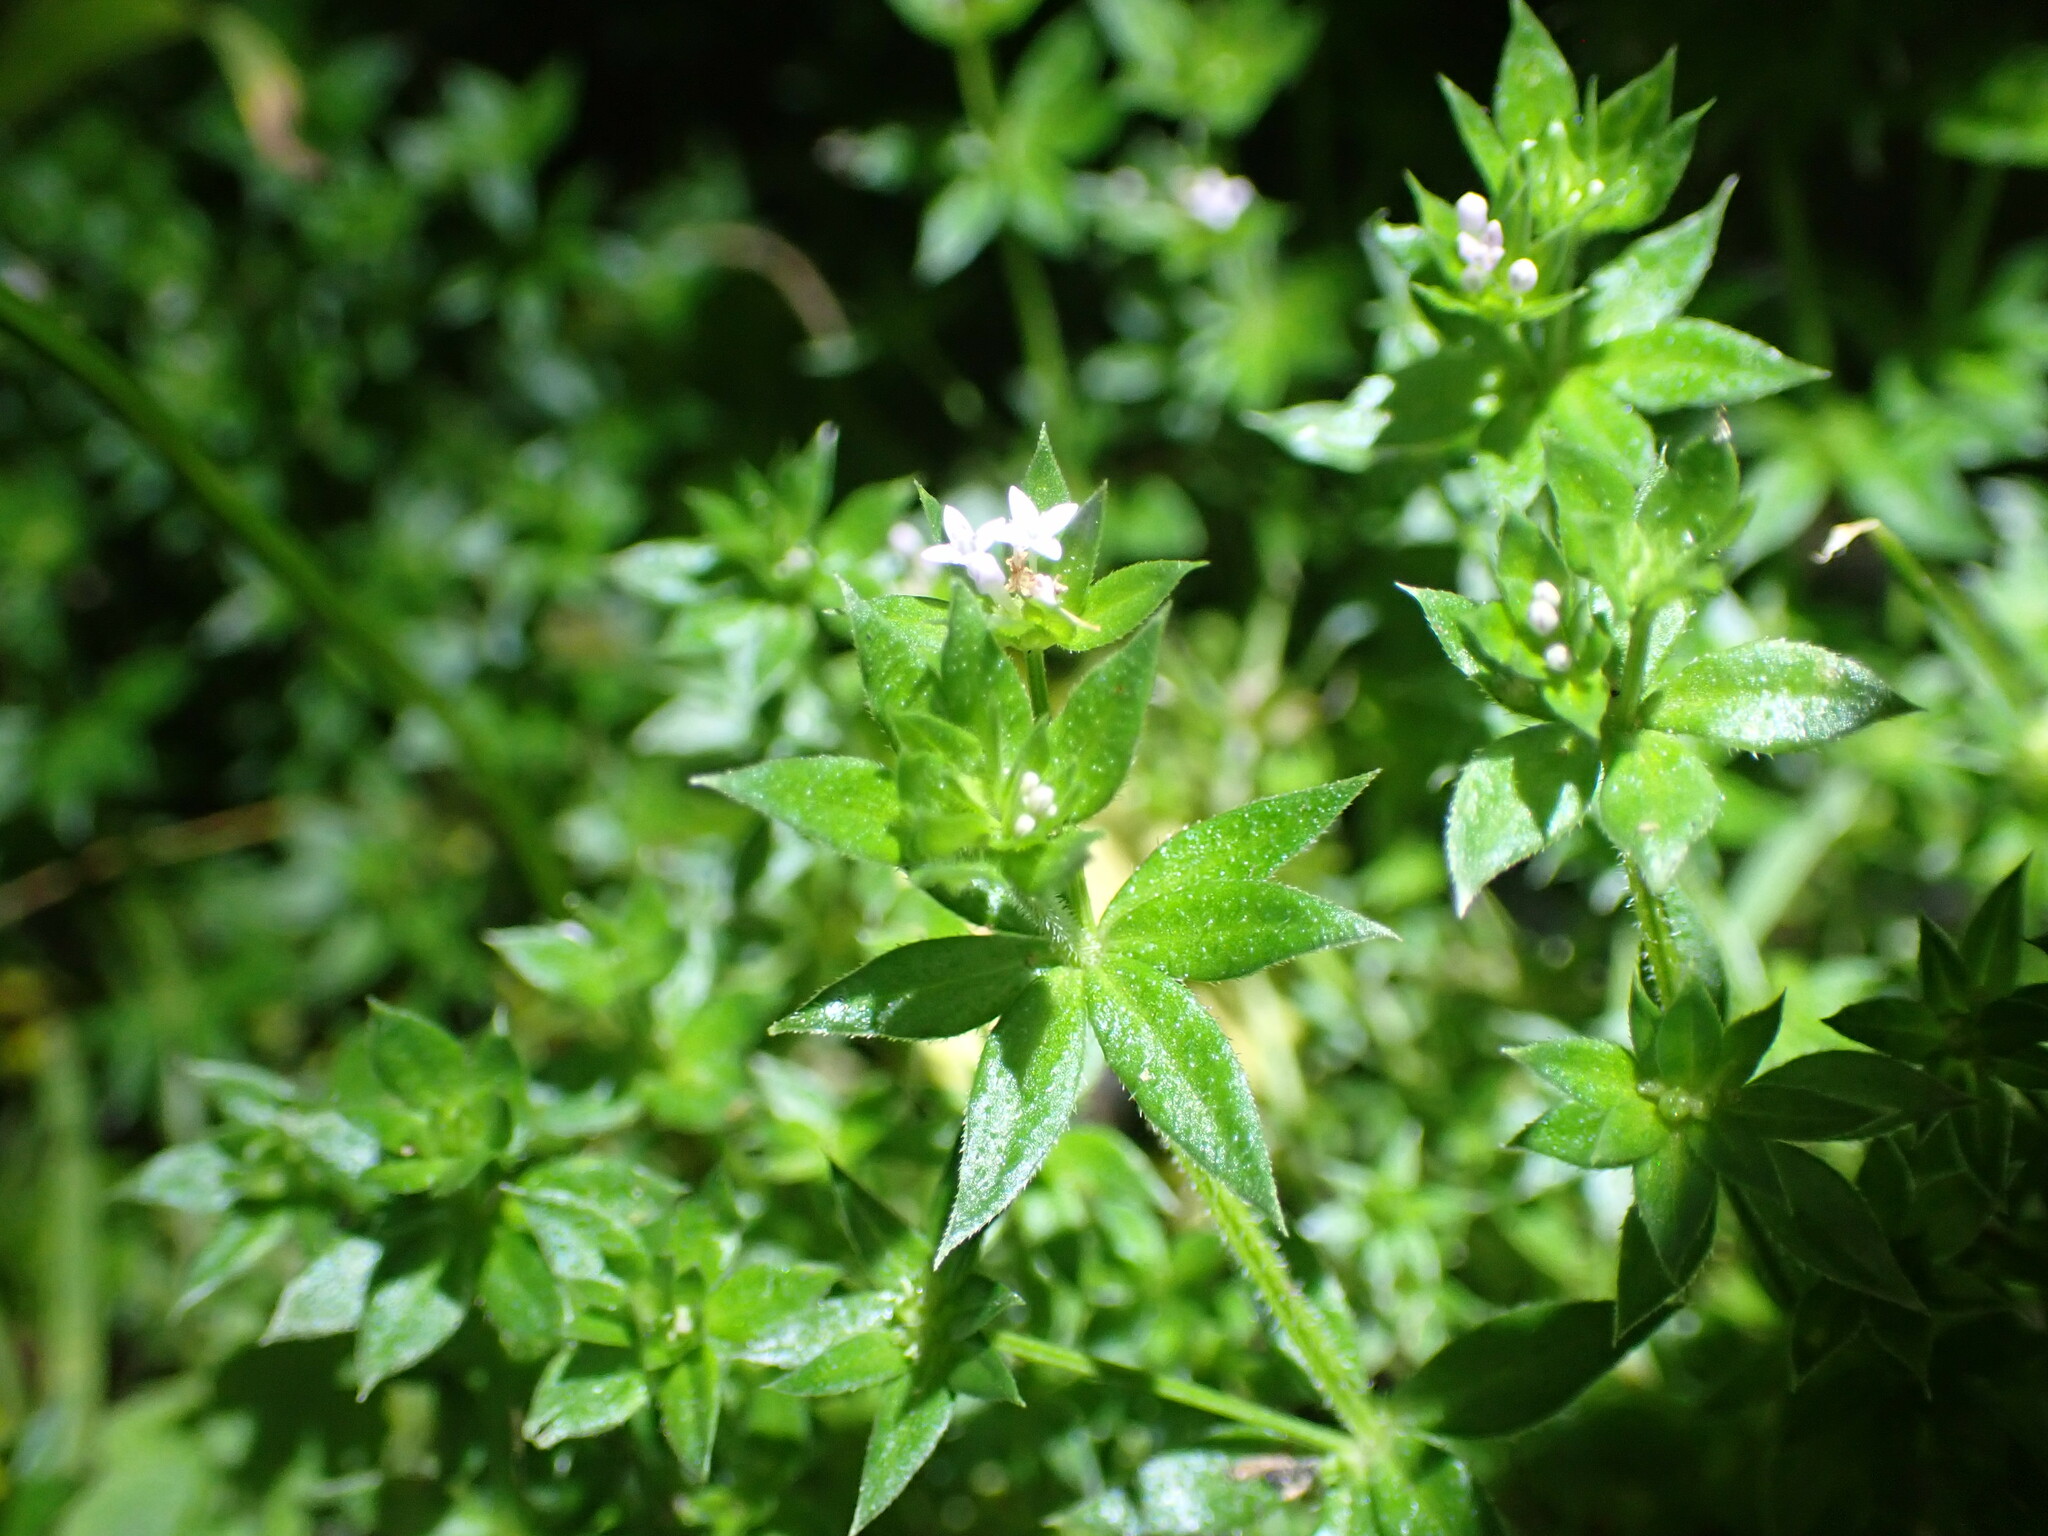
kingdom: Plantae
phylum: Tracheophyta
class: Magnoliopsida
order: Gentianales
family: Rubiaceae
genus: Sherardia
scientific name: Sherardia arvensis
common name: Field madder
